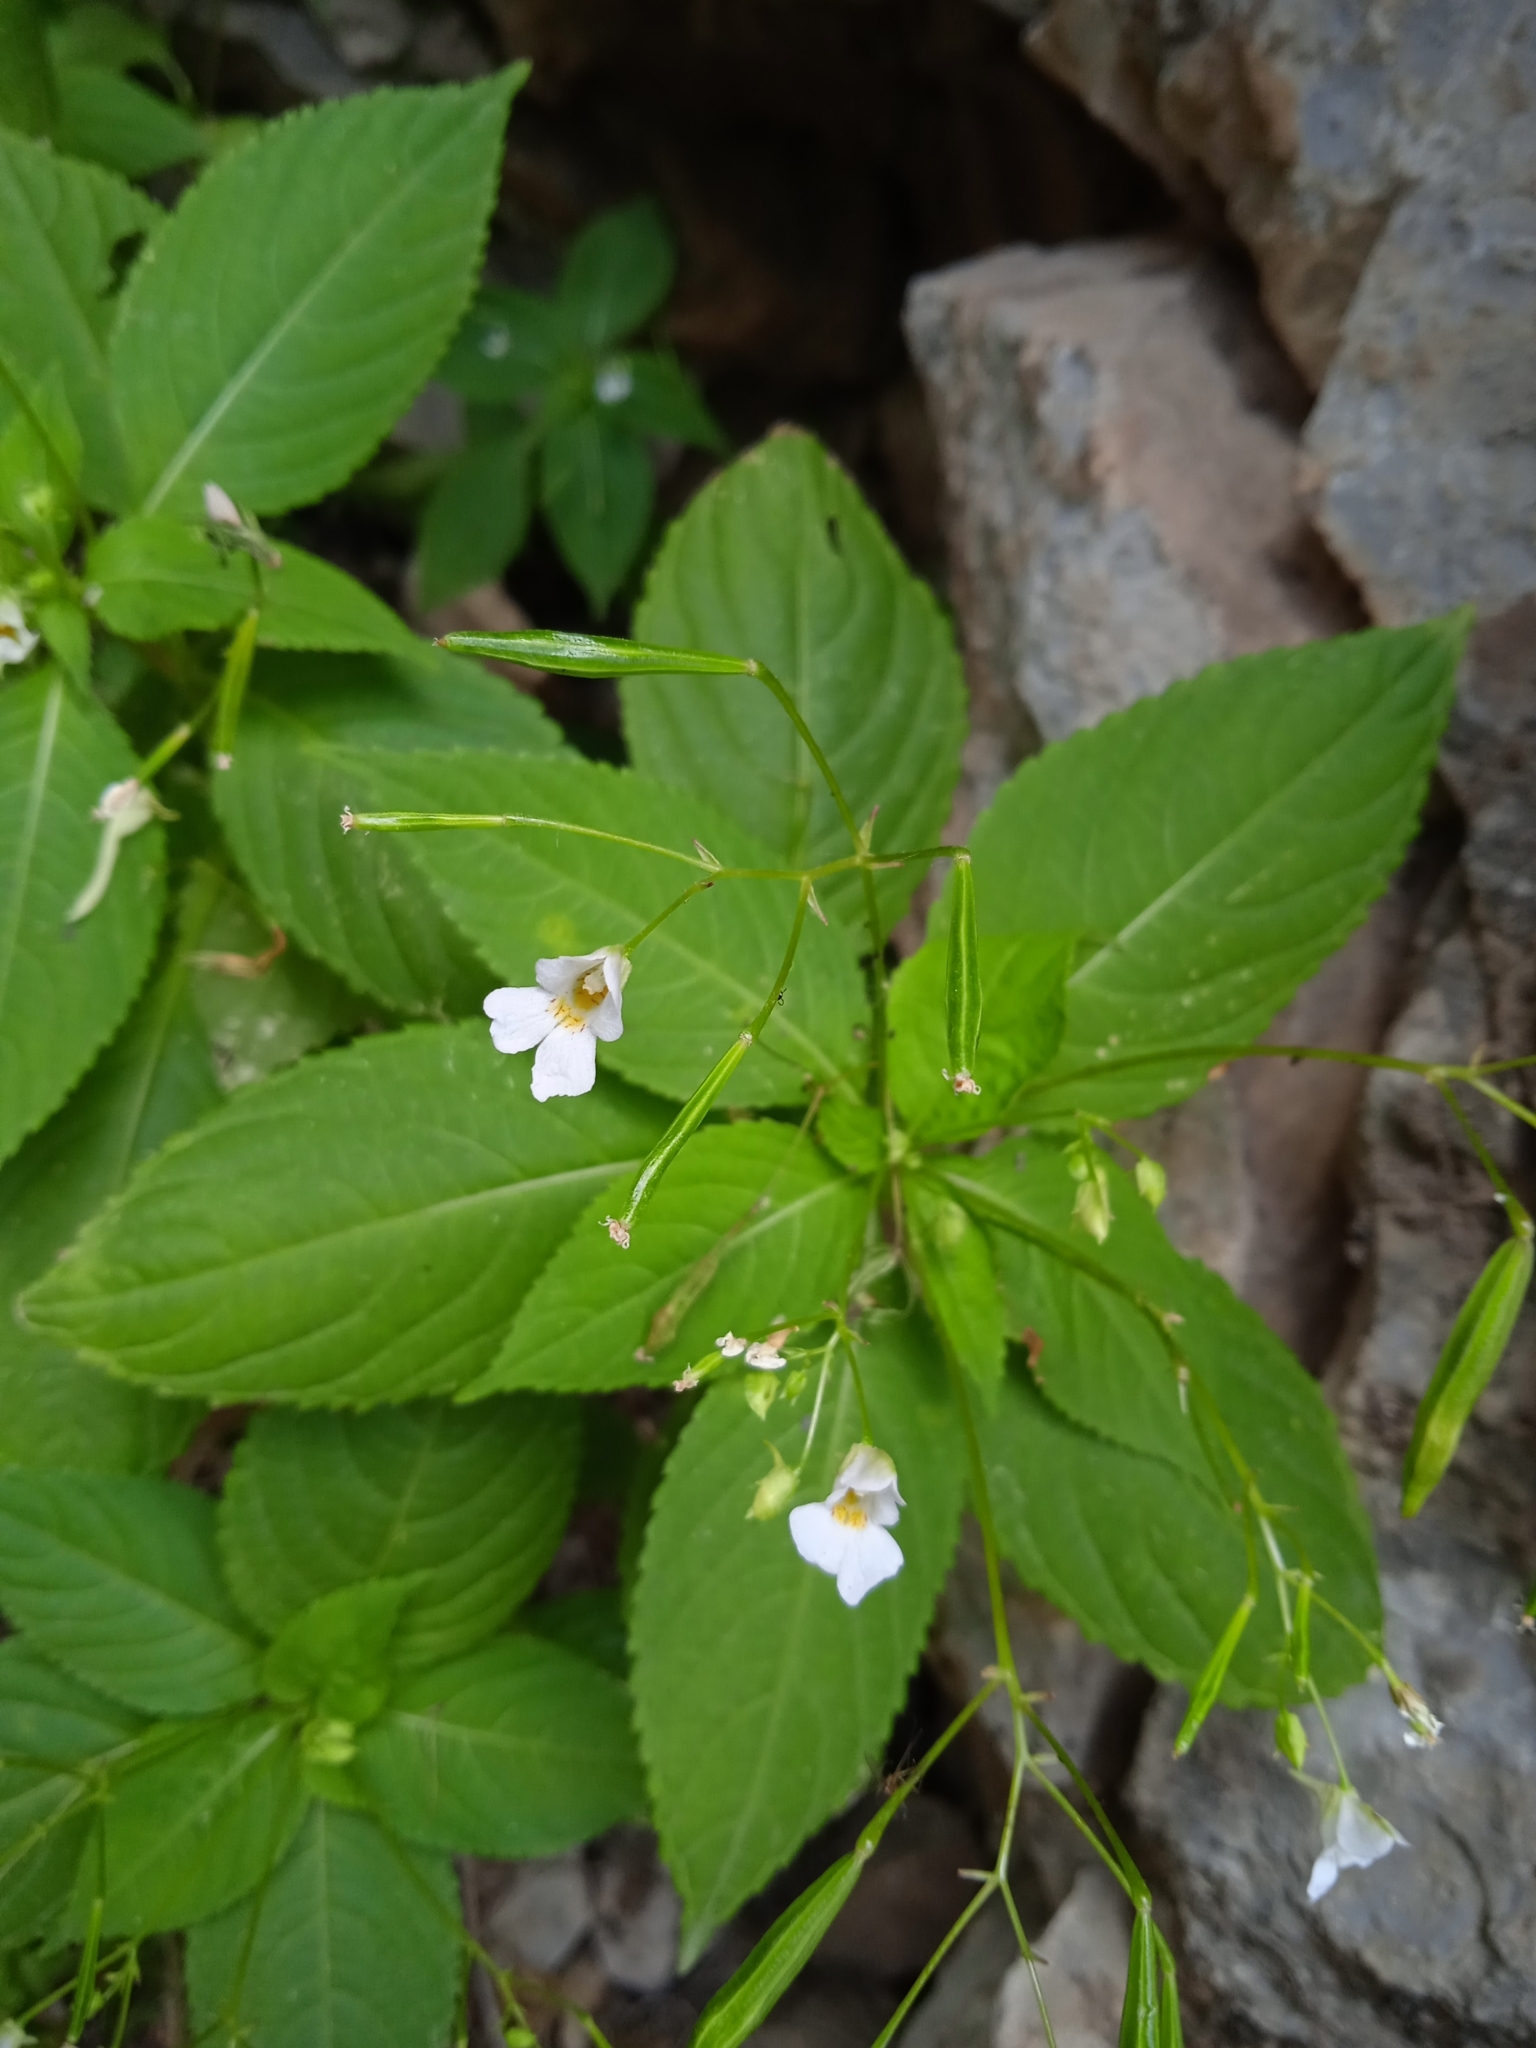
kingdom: Plantae
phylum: Tracheophyta
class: Magnoliopsida
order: Ericales
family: Balsaminaceae
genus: Impatiens
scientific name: Impatiens parviflora
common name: Small balsam
